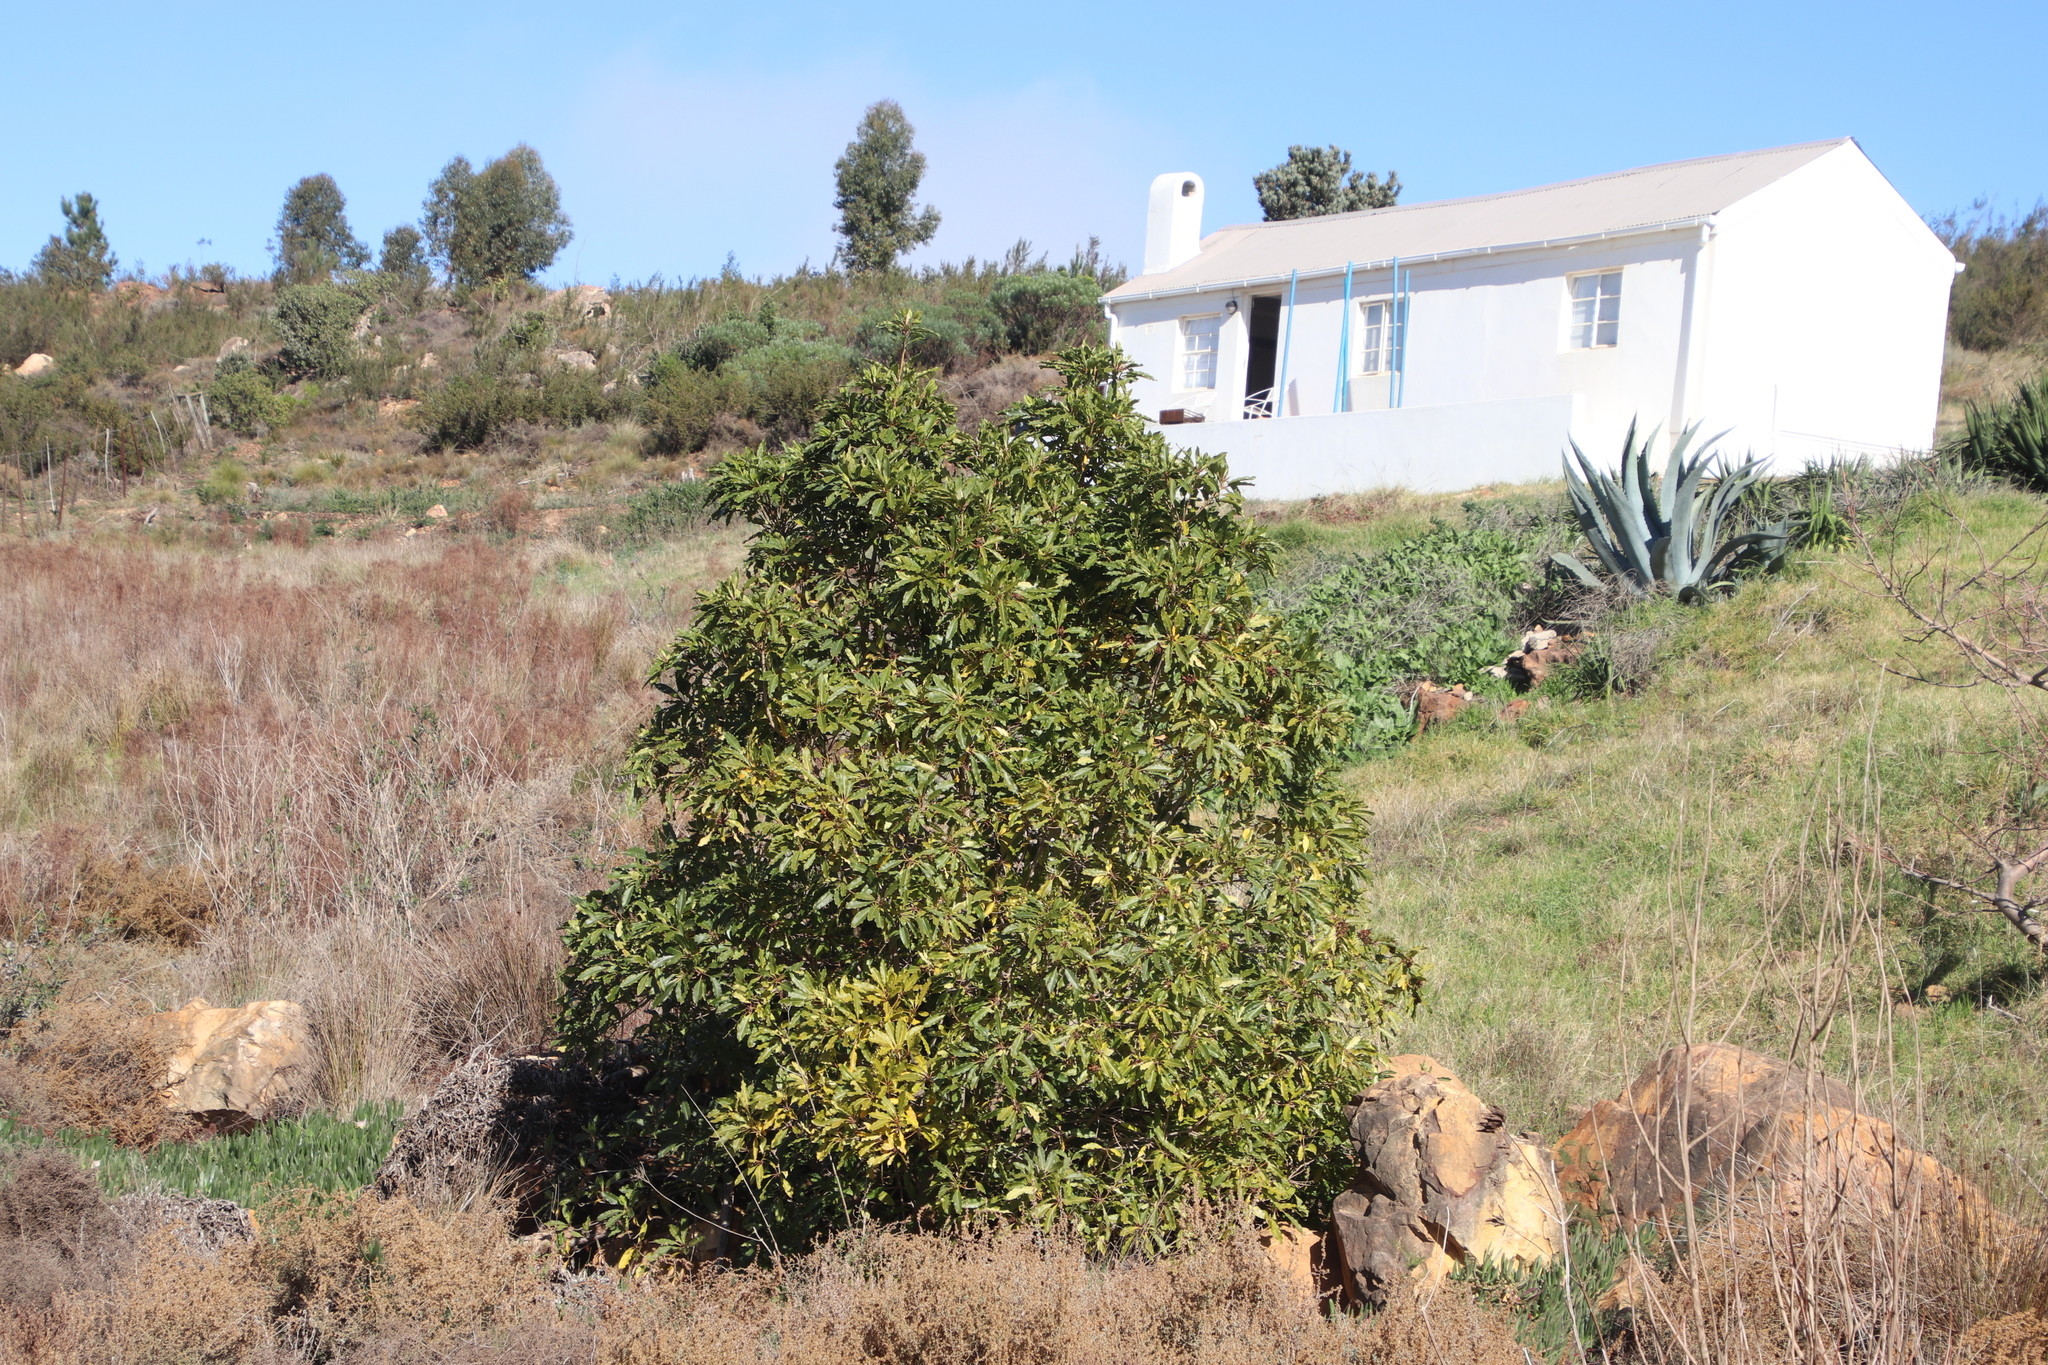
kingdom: Plantae
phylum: Tracheophyta
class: Magnoliopsida
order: Apiales
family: Pittosporaceae
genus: Pittosporum
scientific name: Pittosporum undulatum
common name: Australian cheesewood
